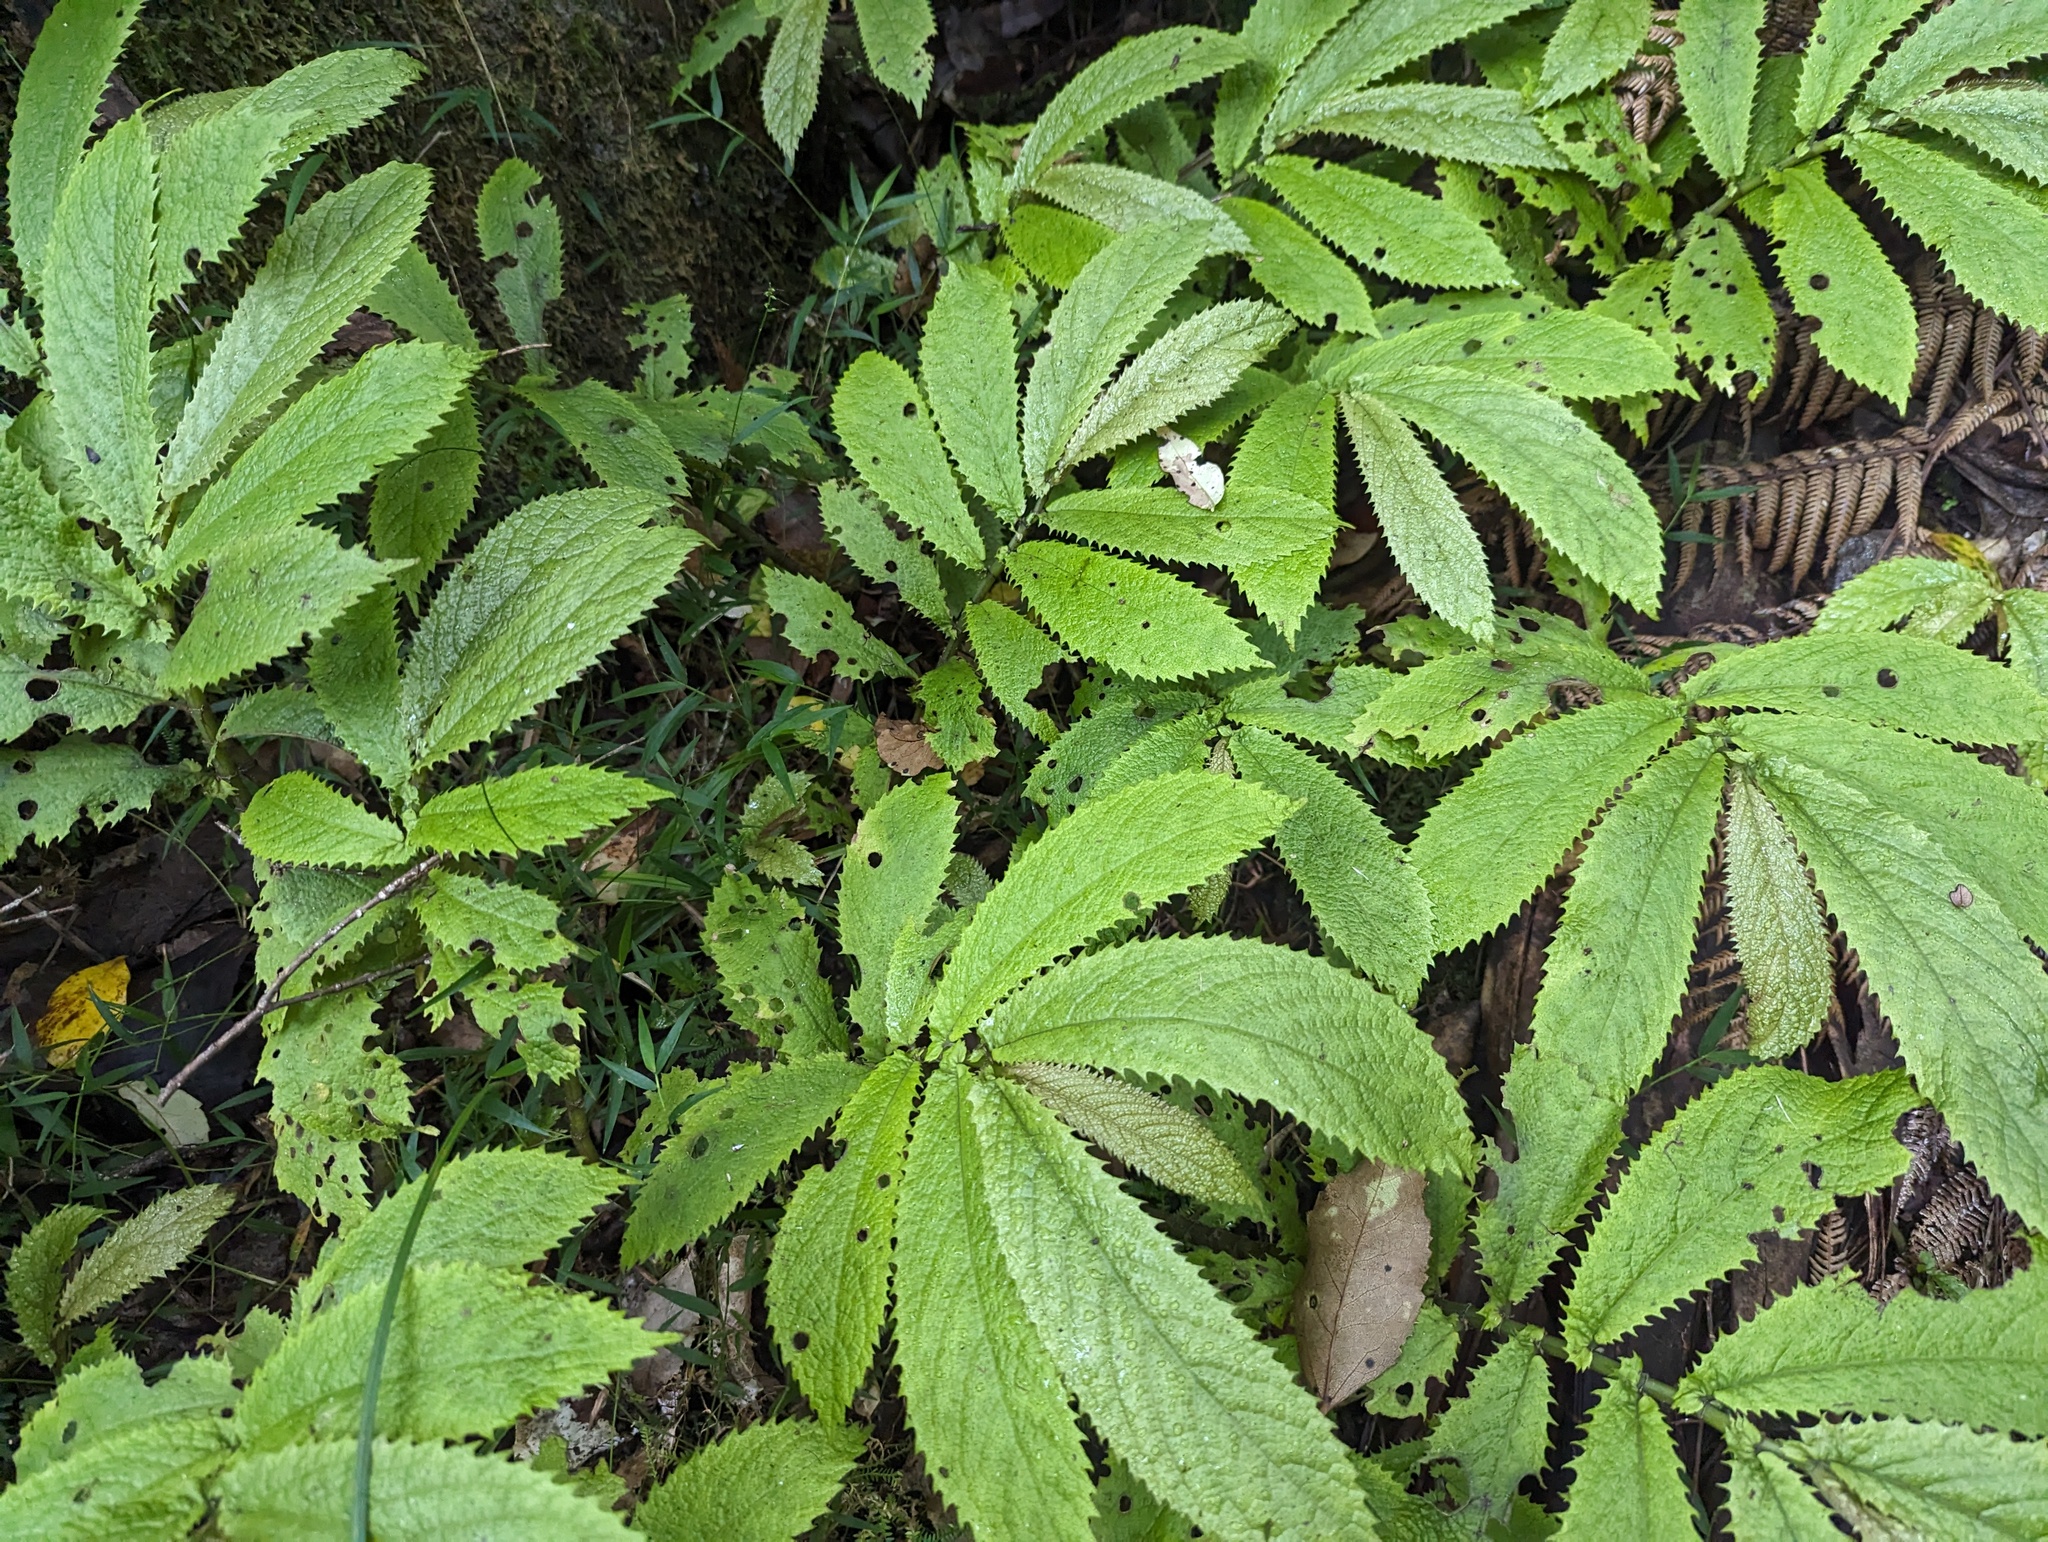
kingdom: Plantae
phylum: Tracheophyta
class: Magnoliopsida
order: Rosales
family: Urticaceae
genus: Elatostema
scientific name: Elatostema rugosum
